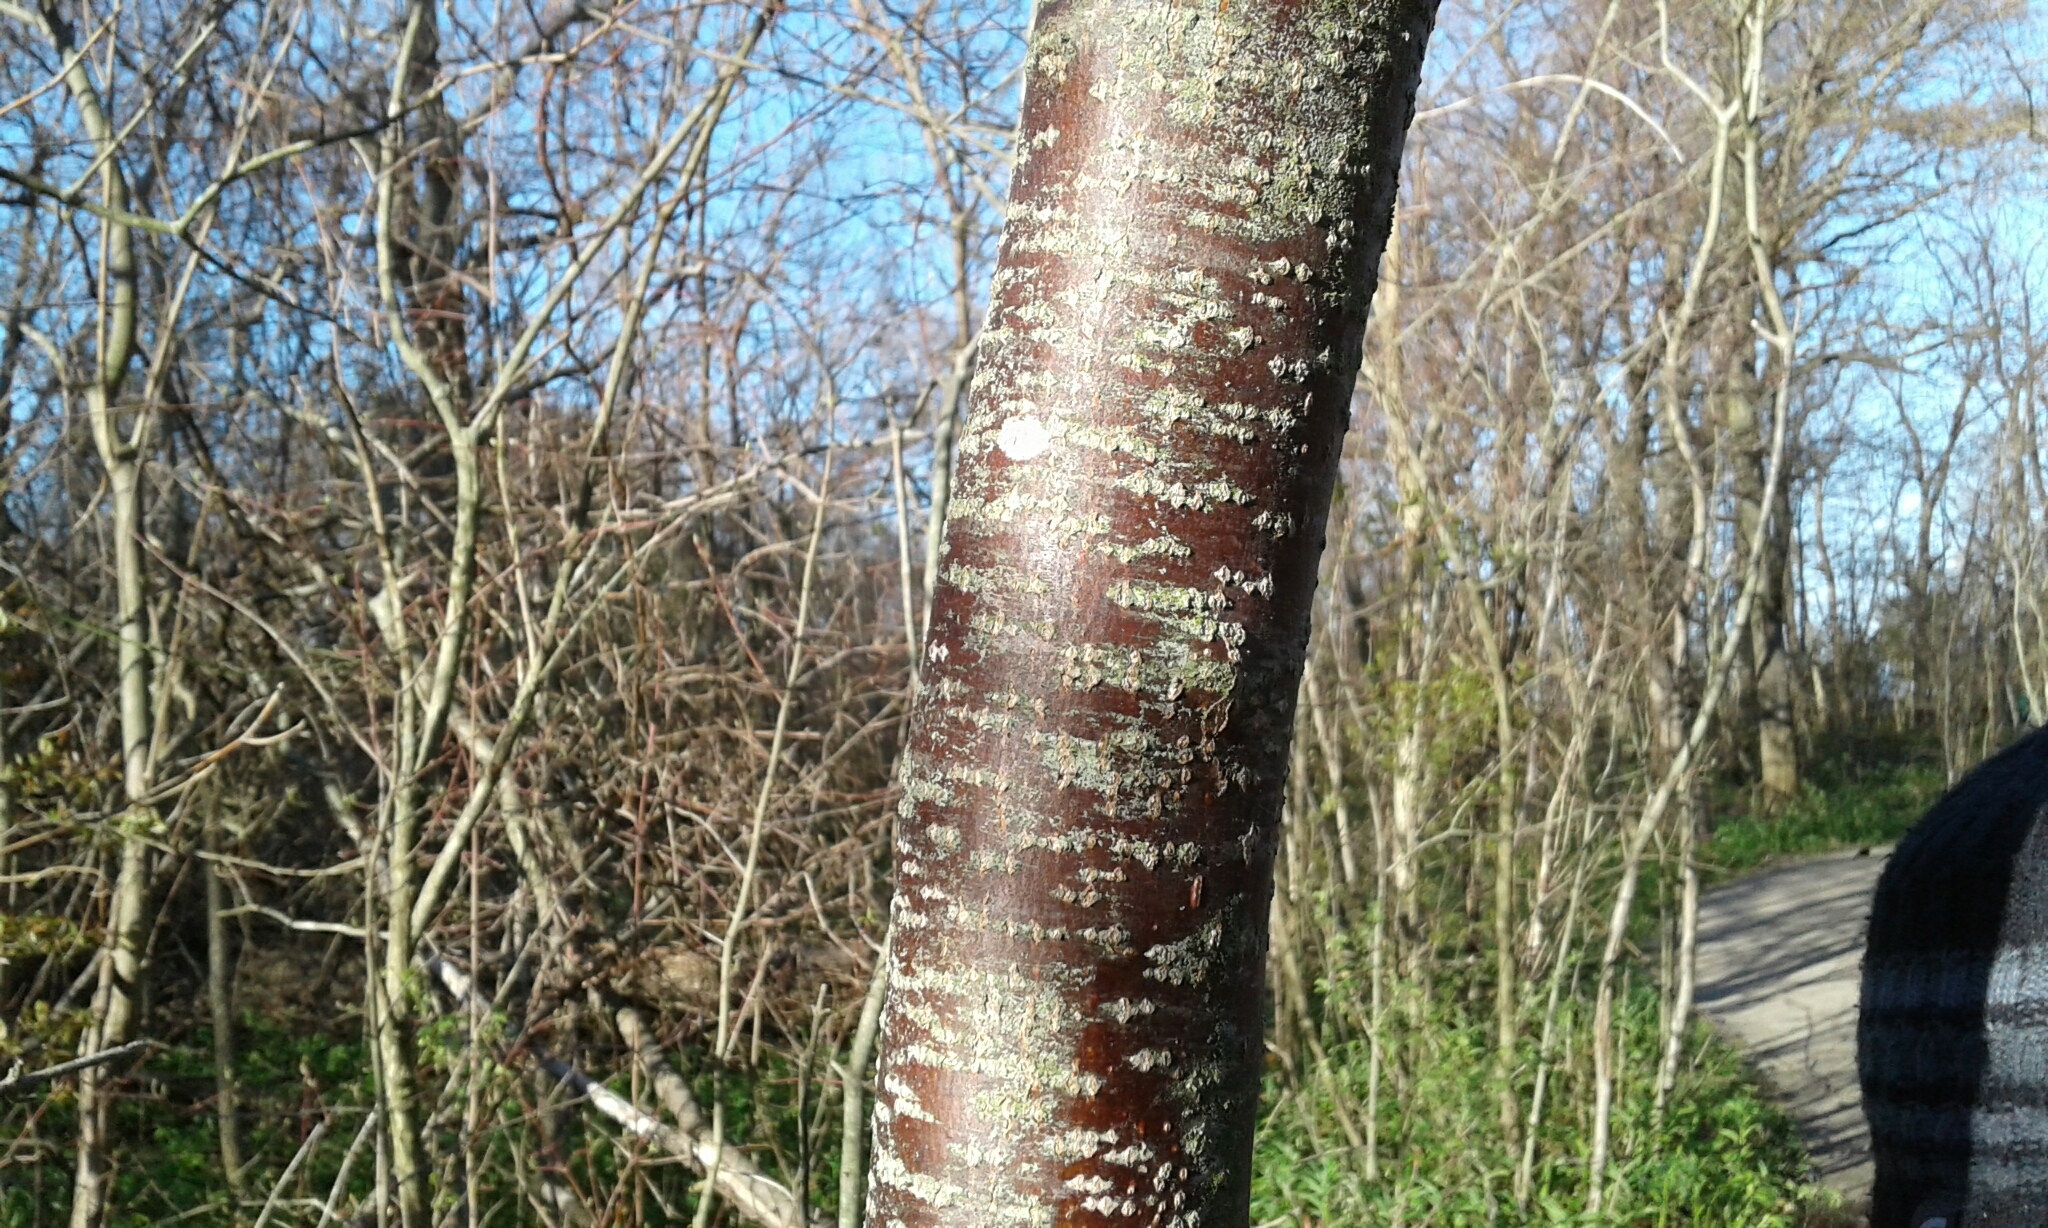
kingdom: Plantae
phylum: Tracheophyta
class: Magnoliopsida
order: Sapindales
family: Rutaceae
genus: Ptelea
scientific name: Ptelea trifoliata
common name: Common hop-tree
